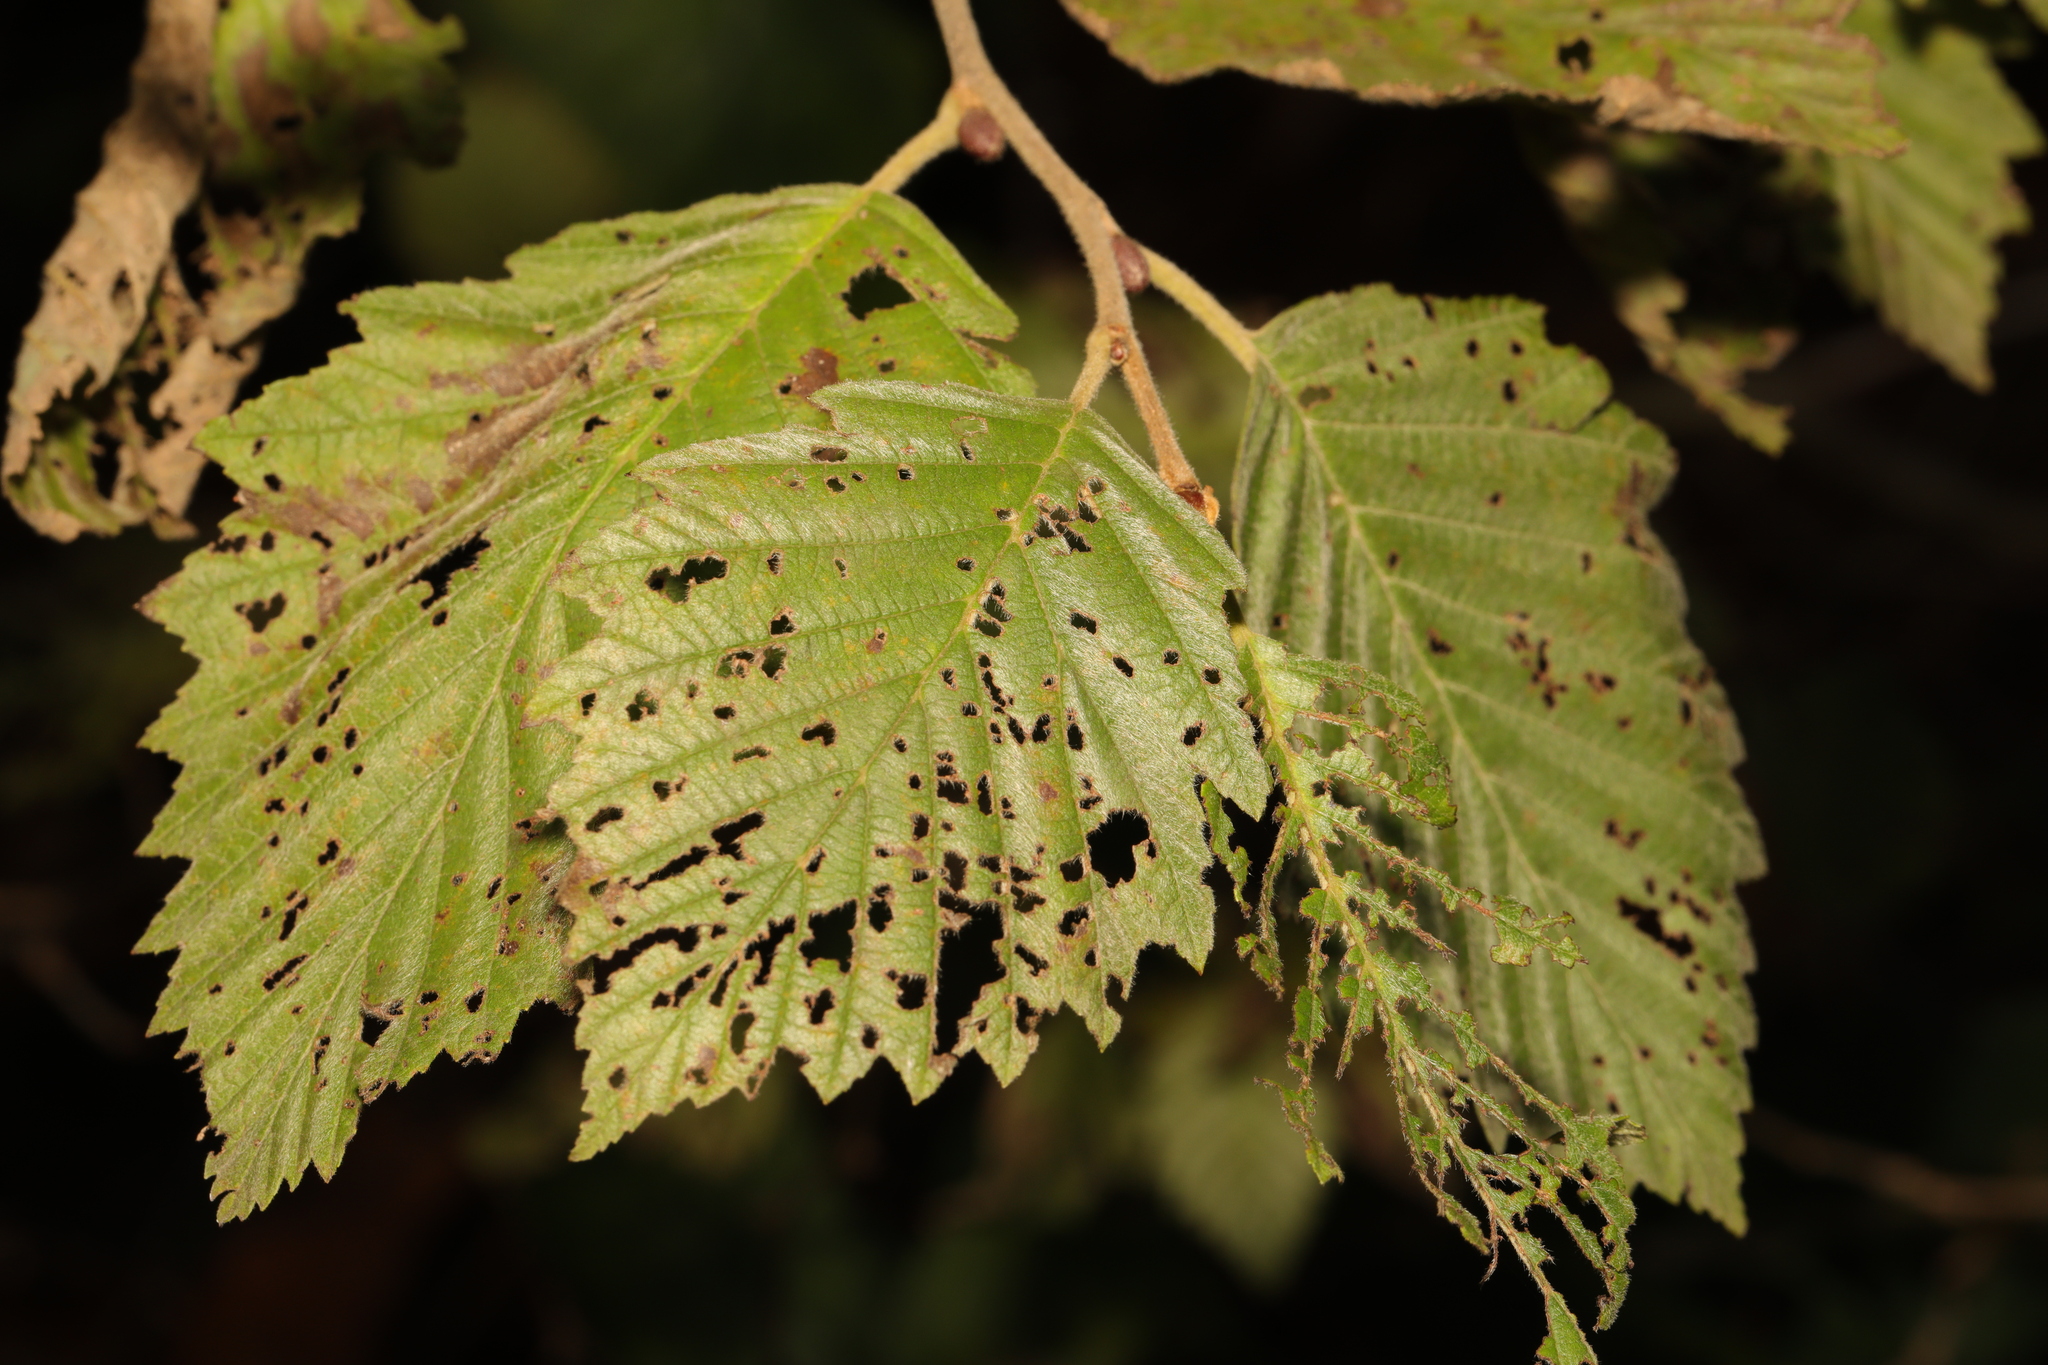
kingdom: Plantae
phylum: Tracheophyta
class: Magnoliopsida
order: Fagales
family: Betulaceae
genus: Alnus
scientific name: Alnus incana
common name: Grey alder
